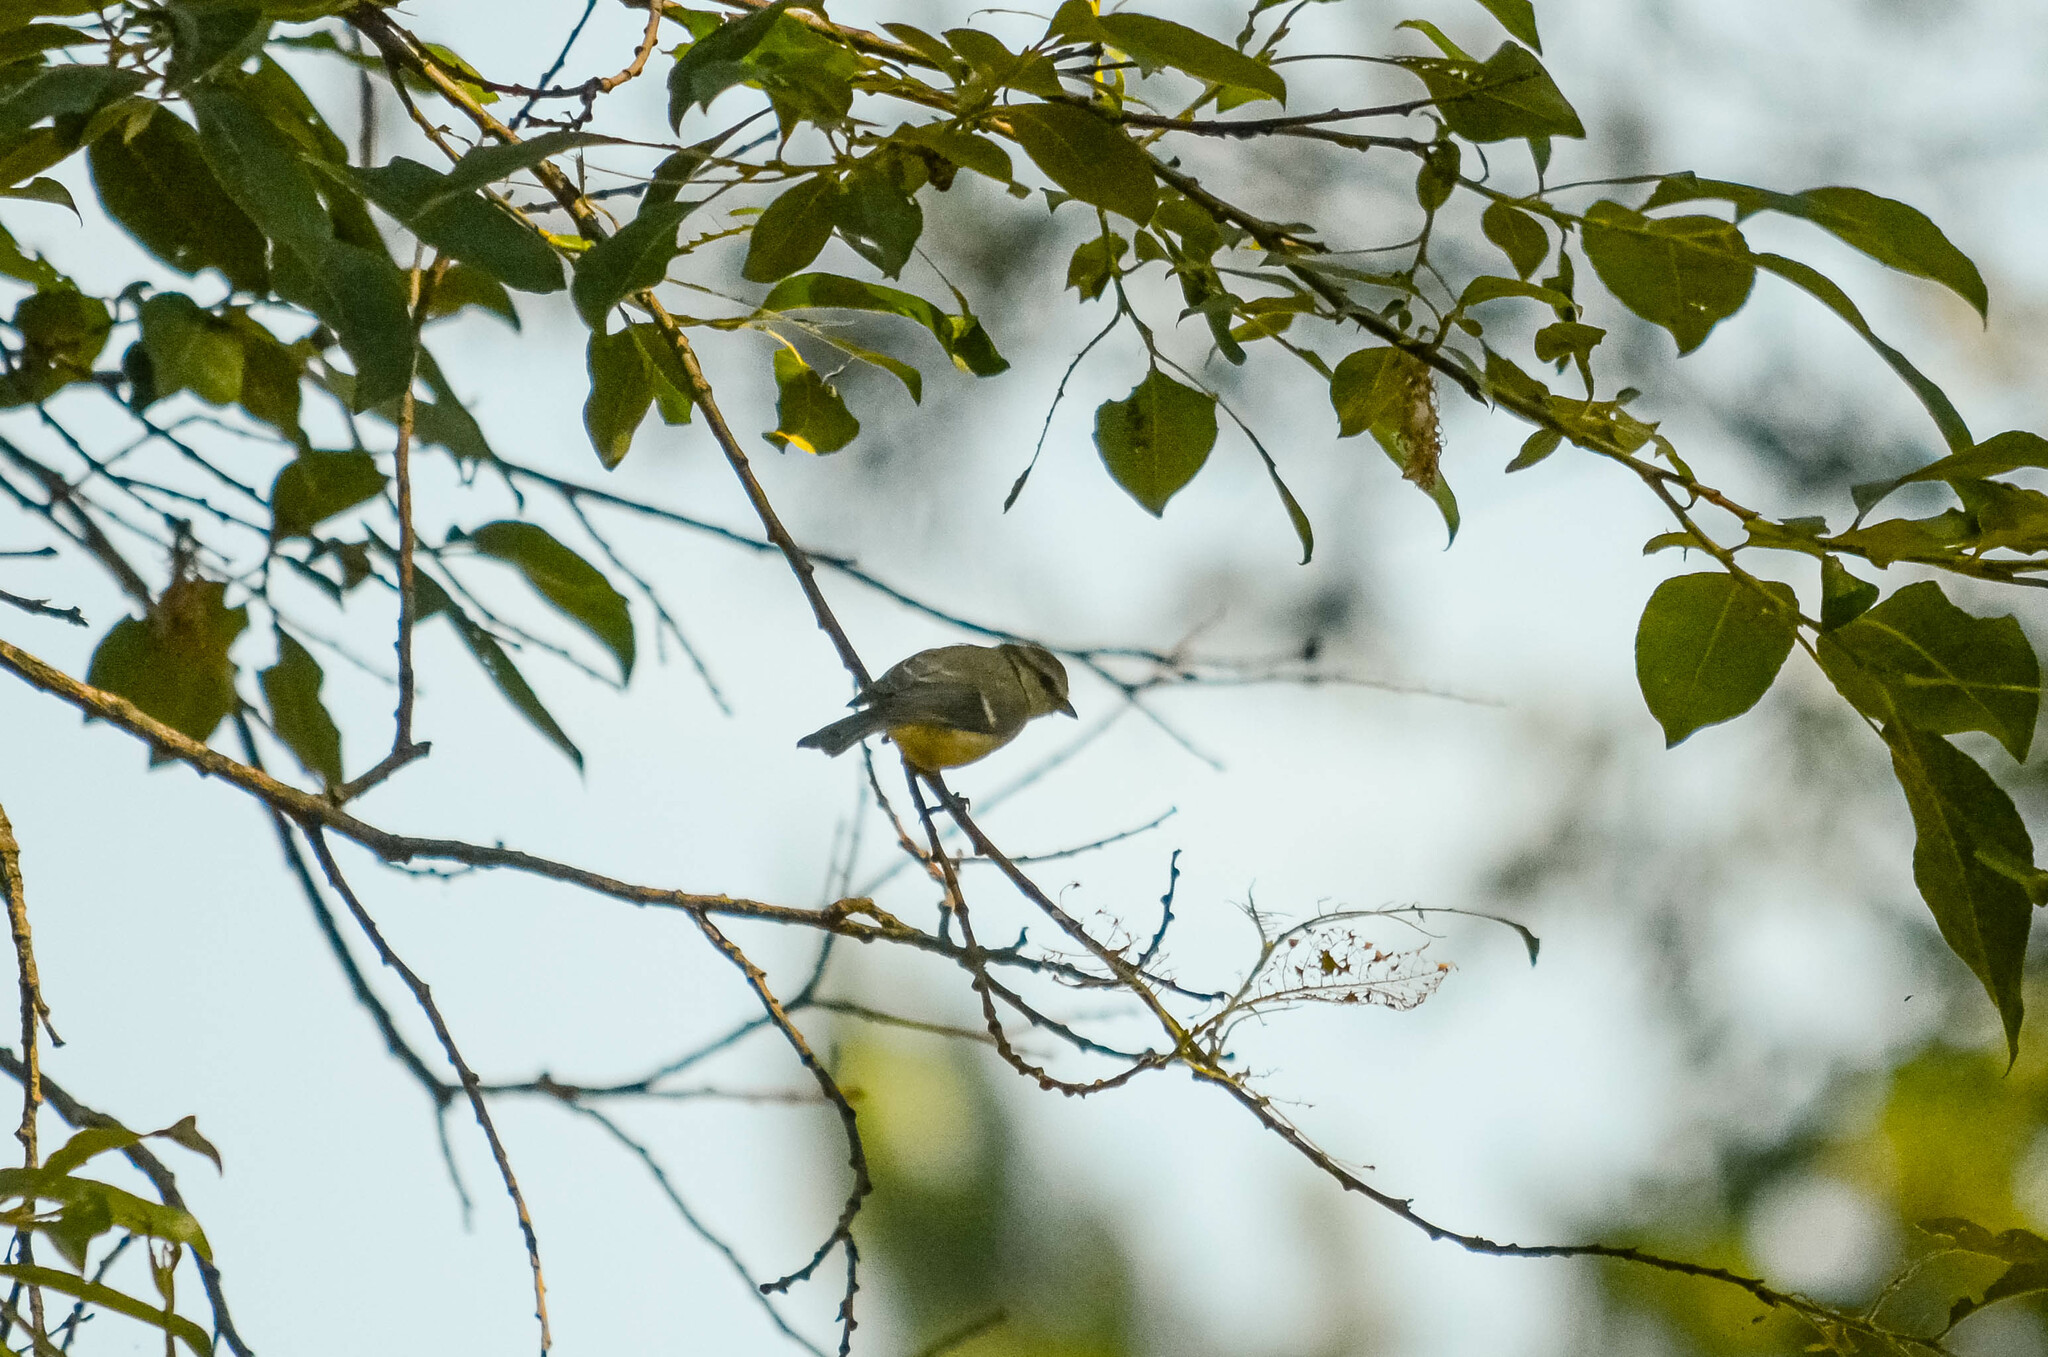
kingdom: Animalia
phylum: Chordata
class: Aves
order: Passeriformes
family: Paridae
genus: Cyanistes
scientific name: Cyanistes caeruleus
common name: Eurasian blue tit
